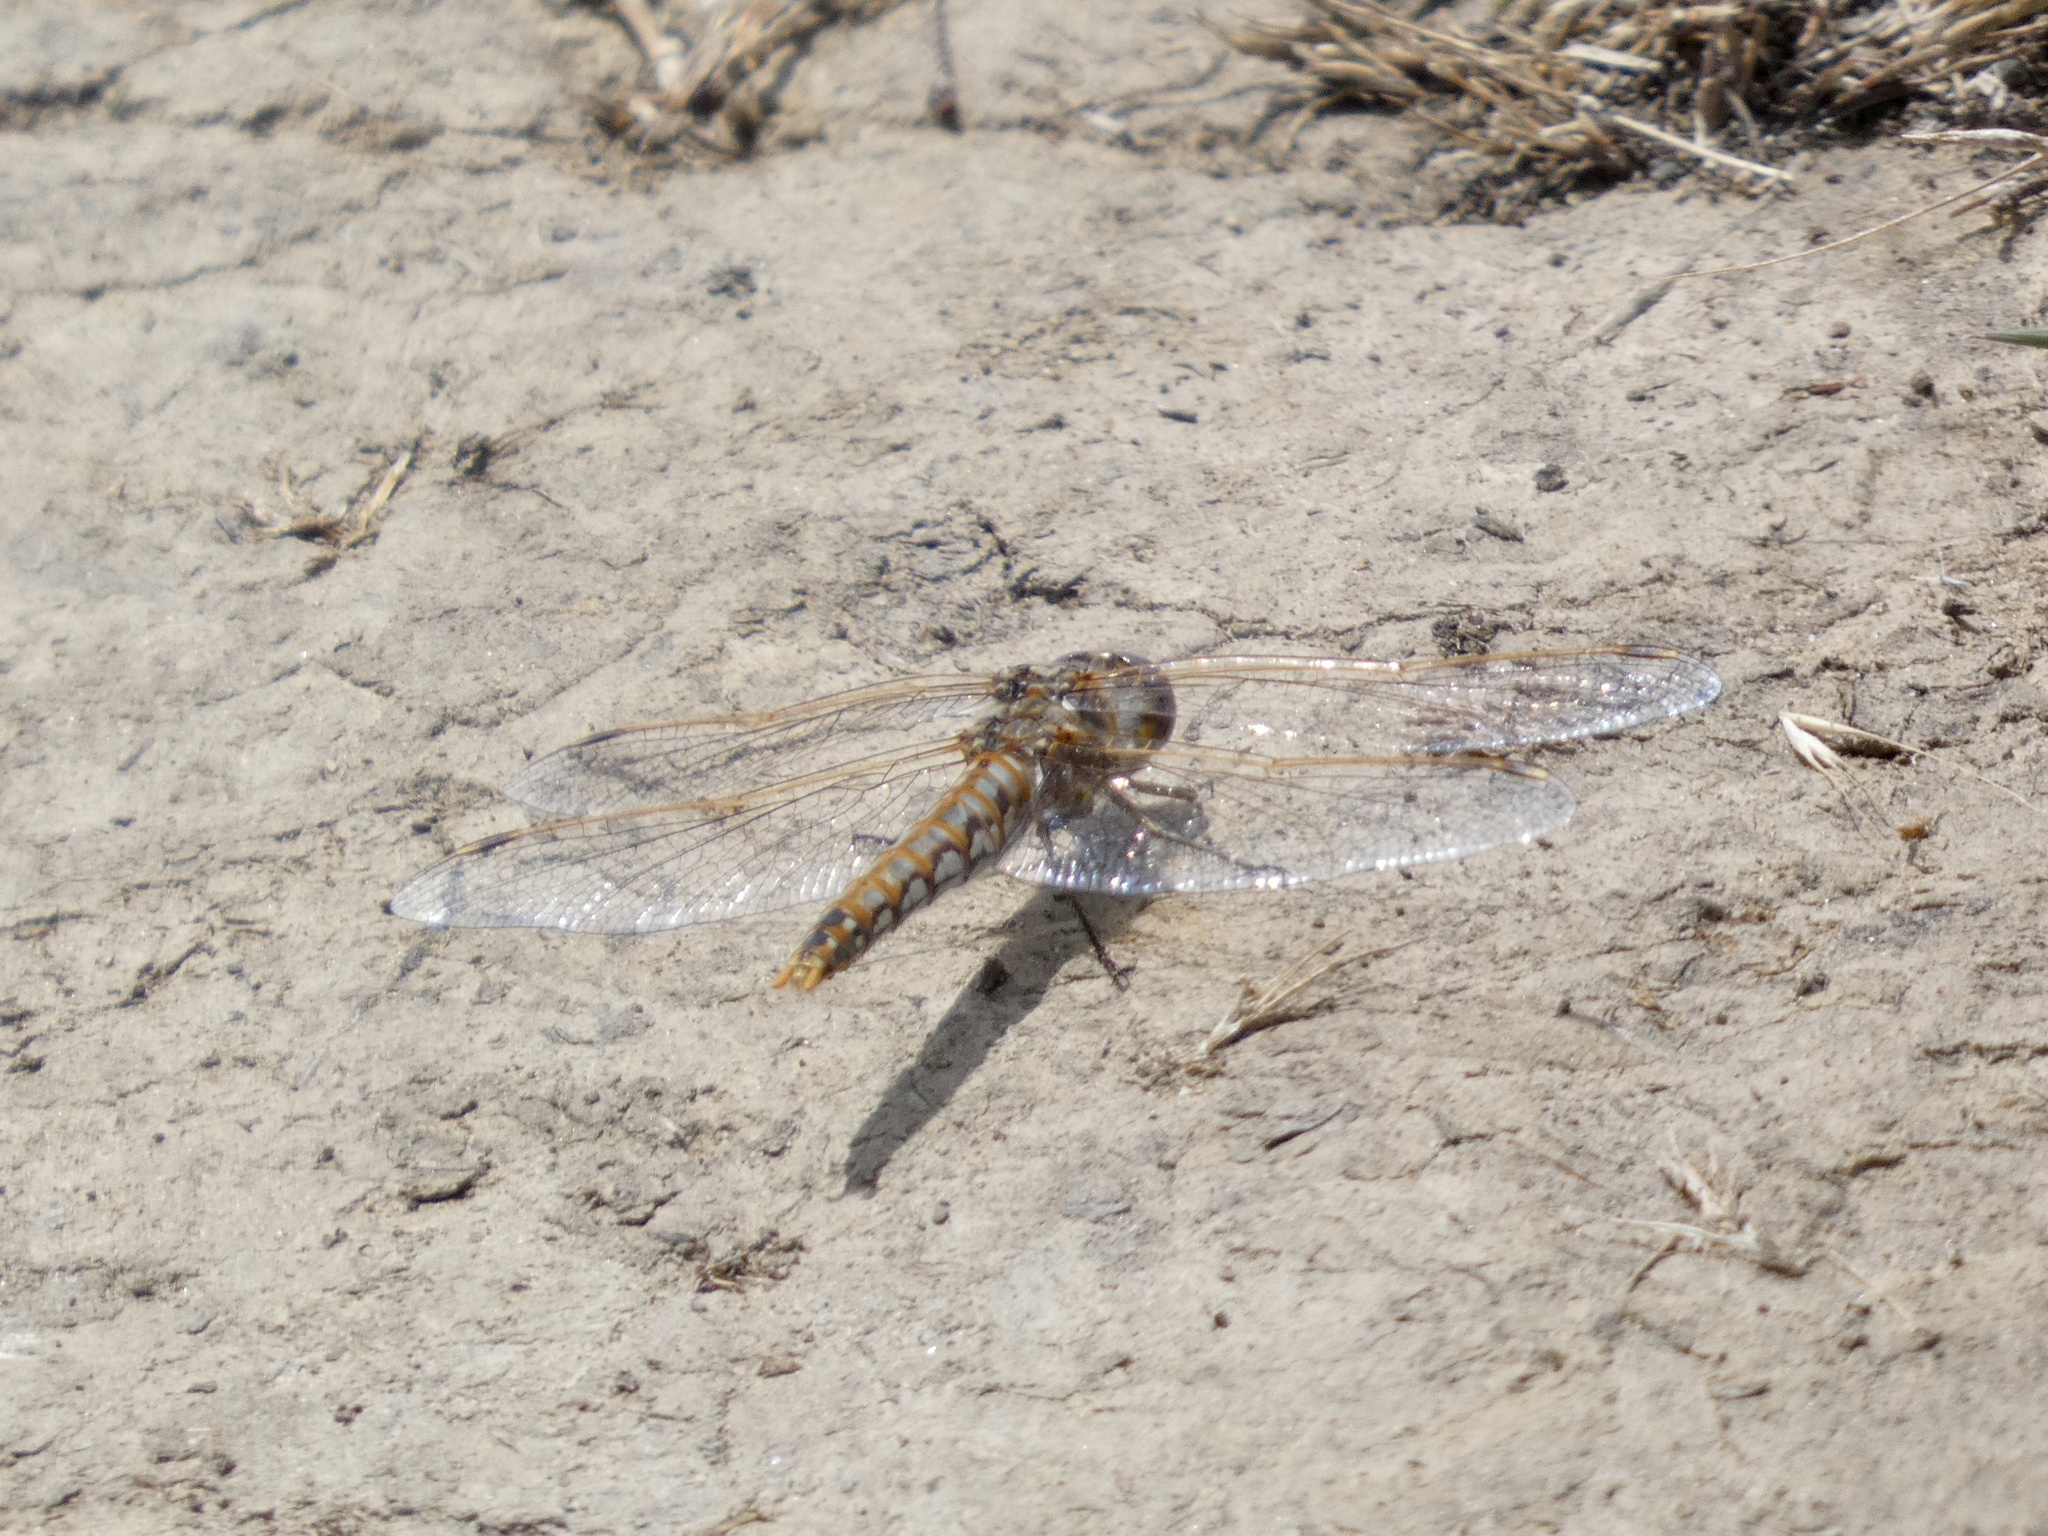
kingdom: Animalia
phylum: Arthropoda
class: Insecta
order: Odonata
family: Libellulidae
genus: Sympetrum
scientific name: Sympetrum corruptum
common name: Variegated meadowhawk
